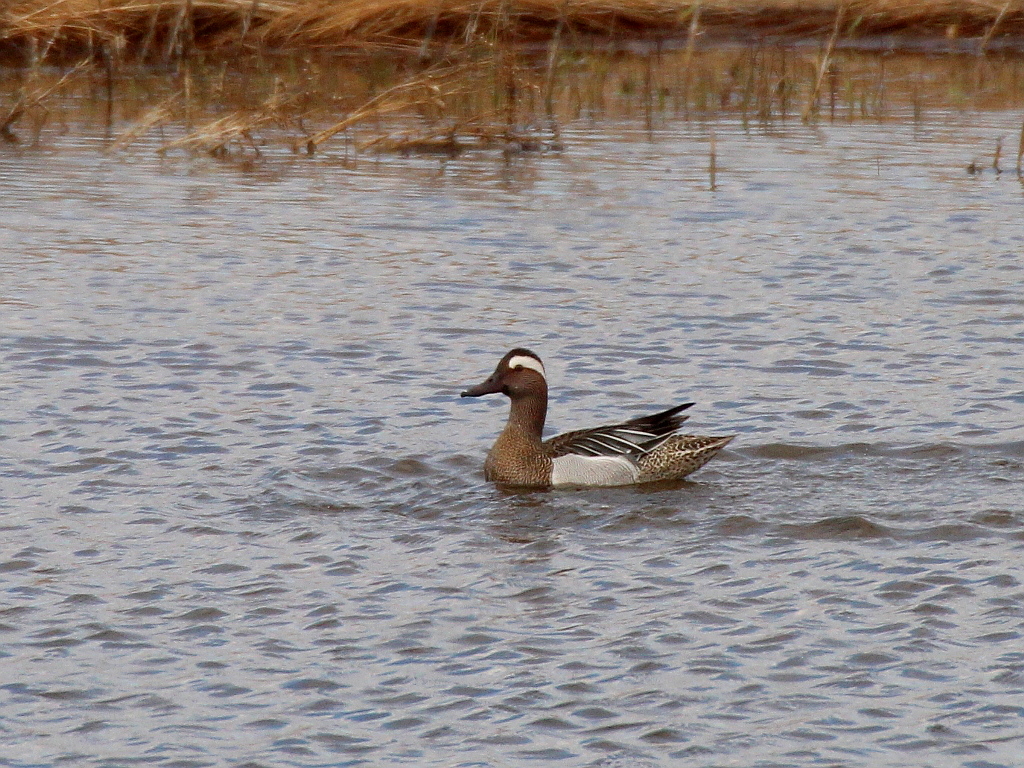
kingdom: Animalia
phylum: Chordata
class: Aves
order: Anseriformes
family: Anatidae
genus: Spatula
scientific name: Spatula querquedula
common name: Garganey
